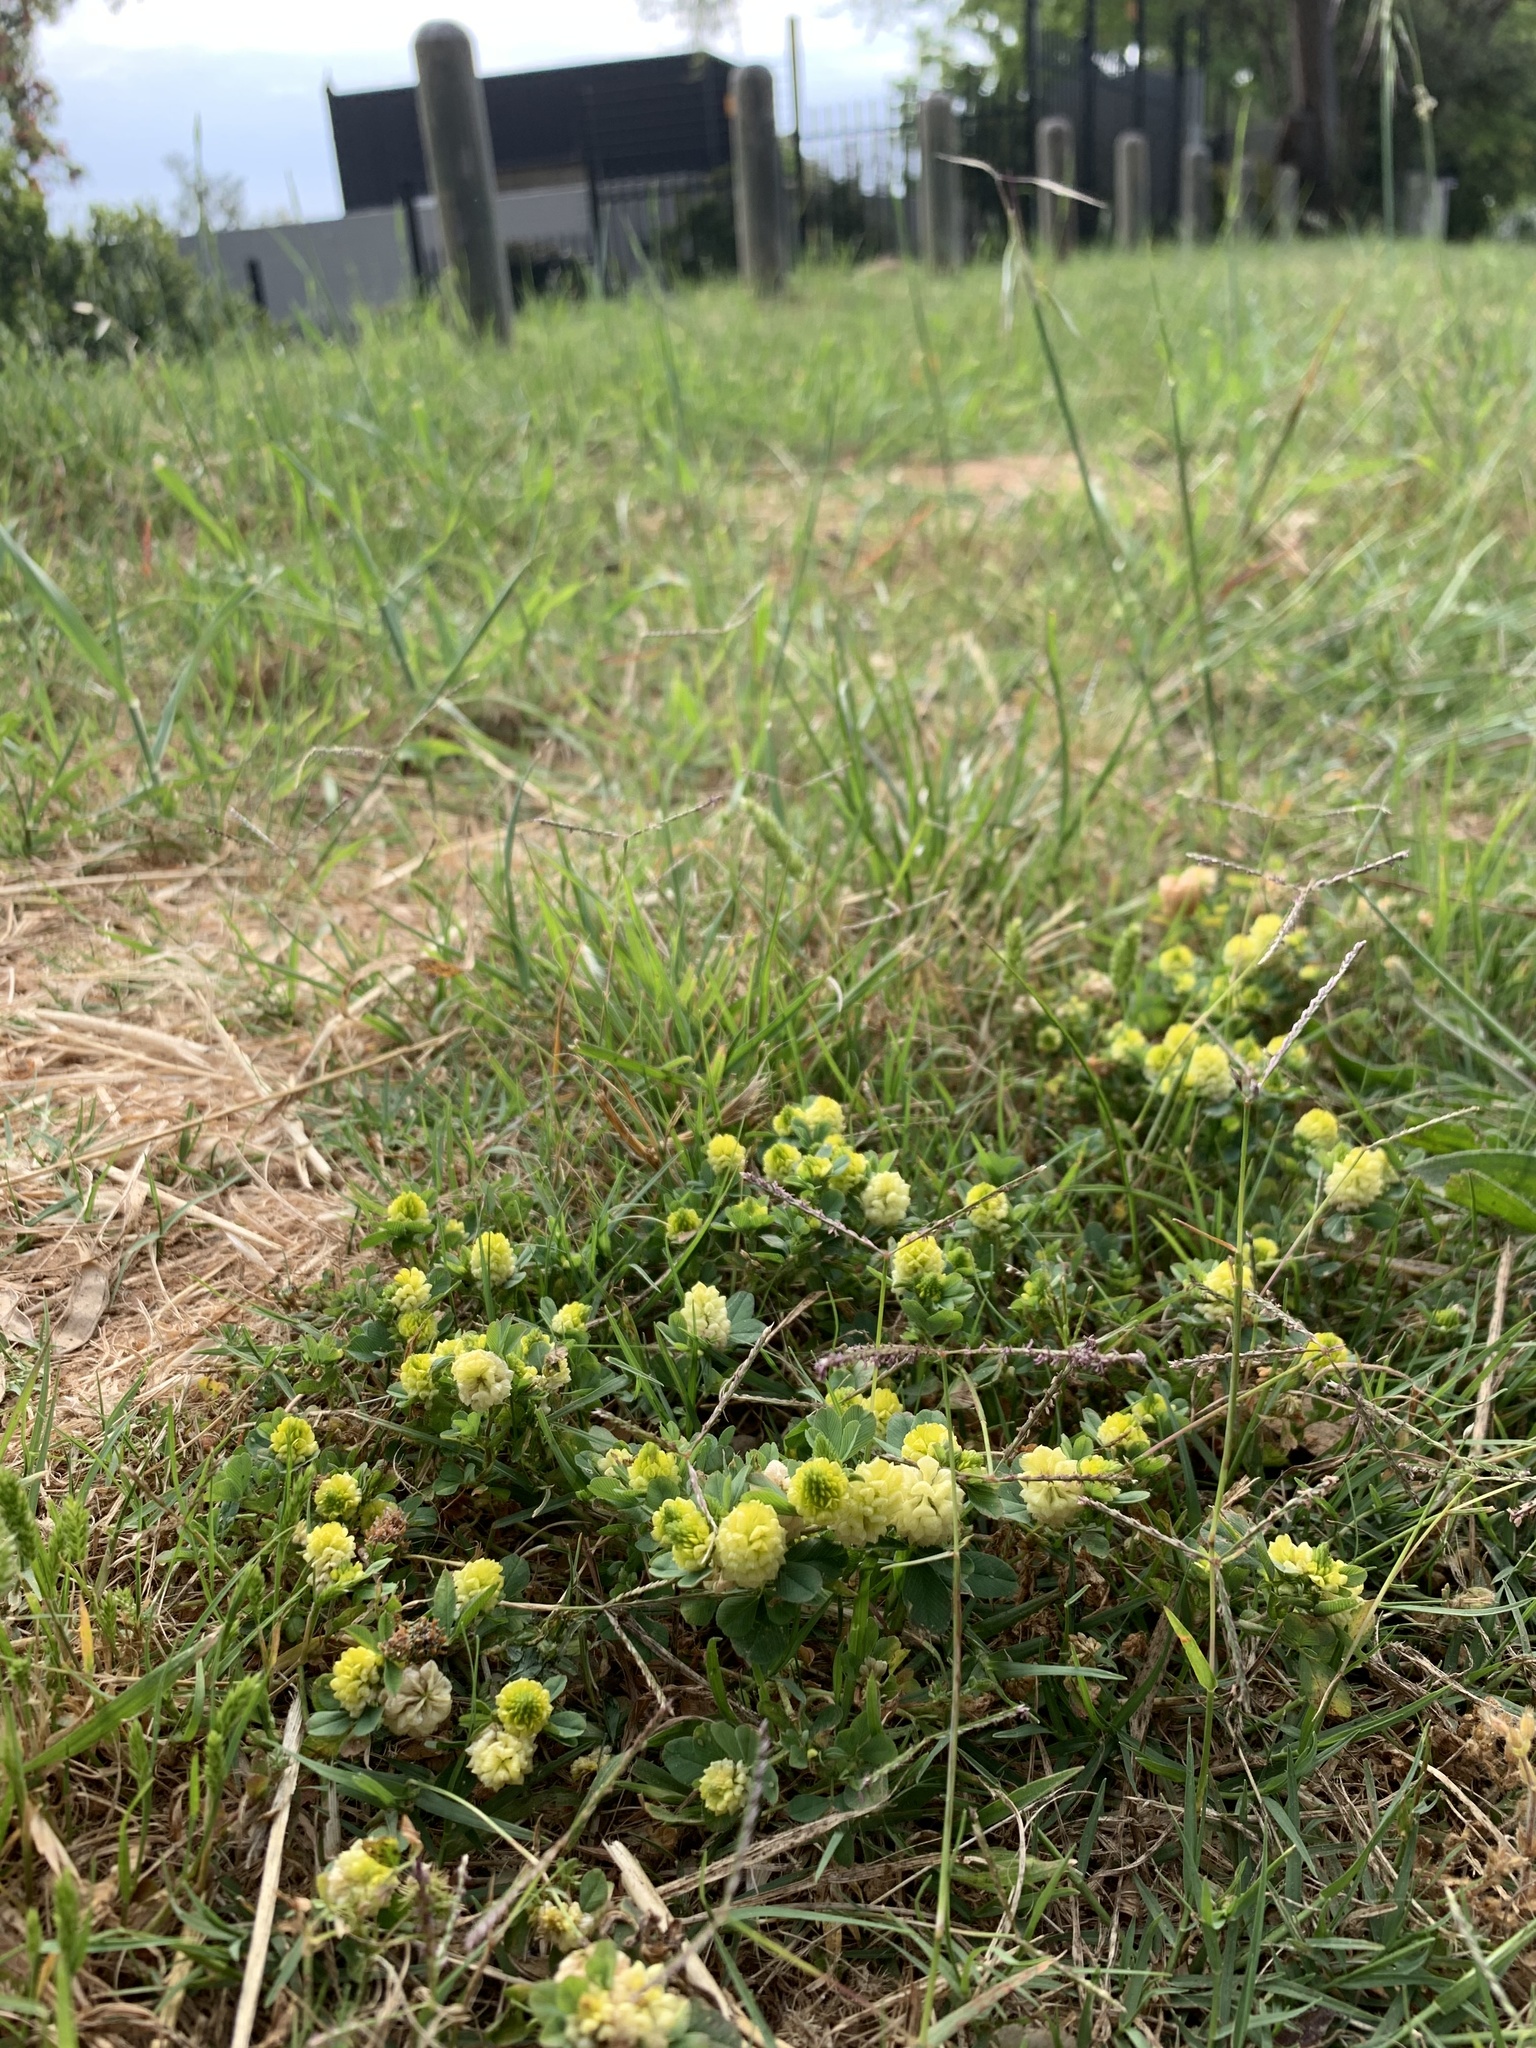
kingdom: Plantae
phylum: Tracheophyta
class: Magnoliopsida
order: Fabales
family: Fabaceae
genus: Trifolium
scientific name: Trifolium campestre
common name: Field clover
